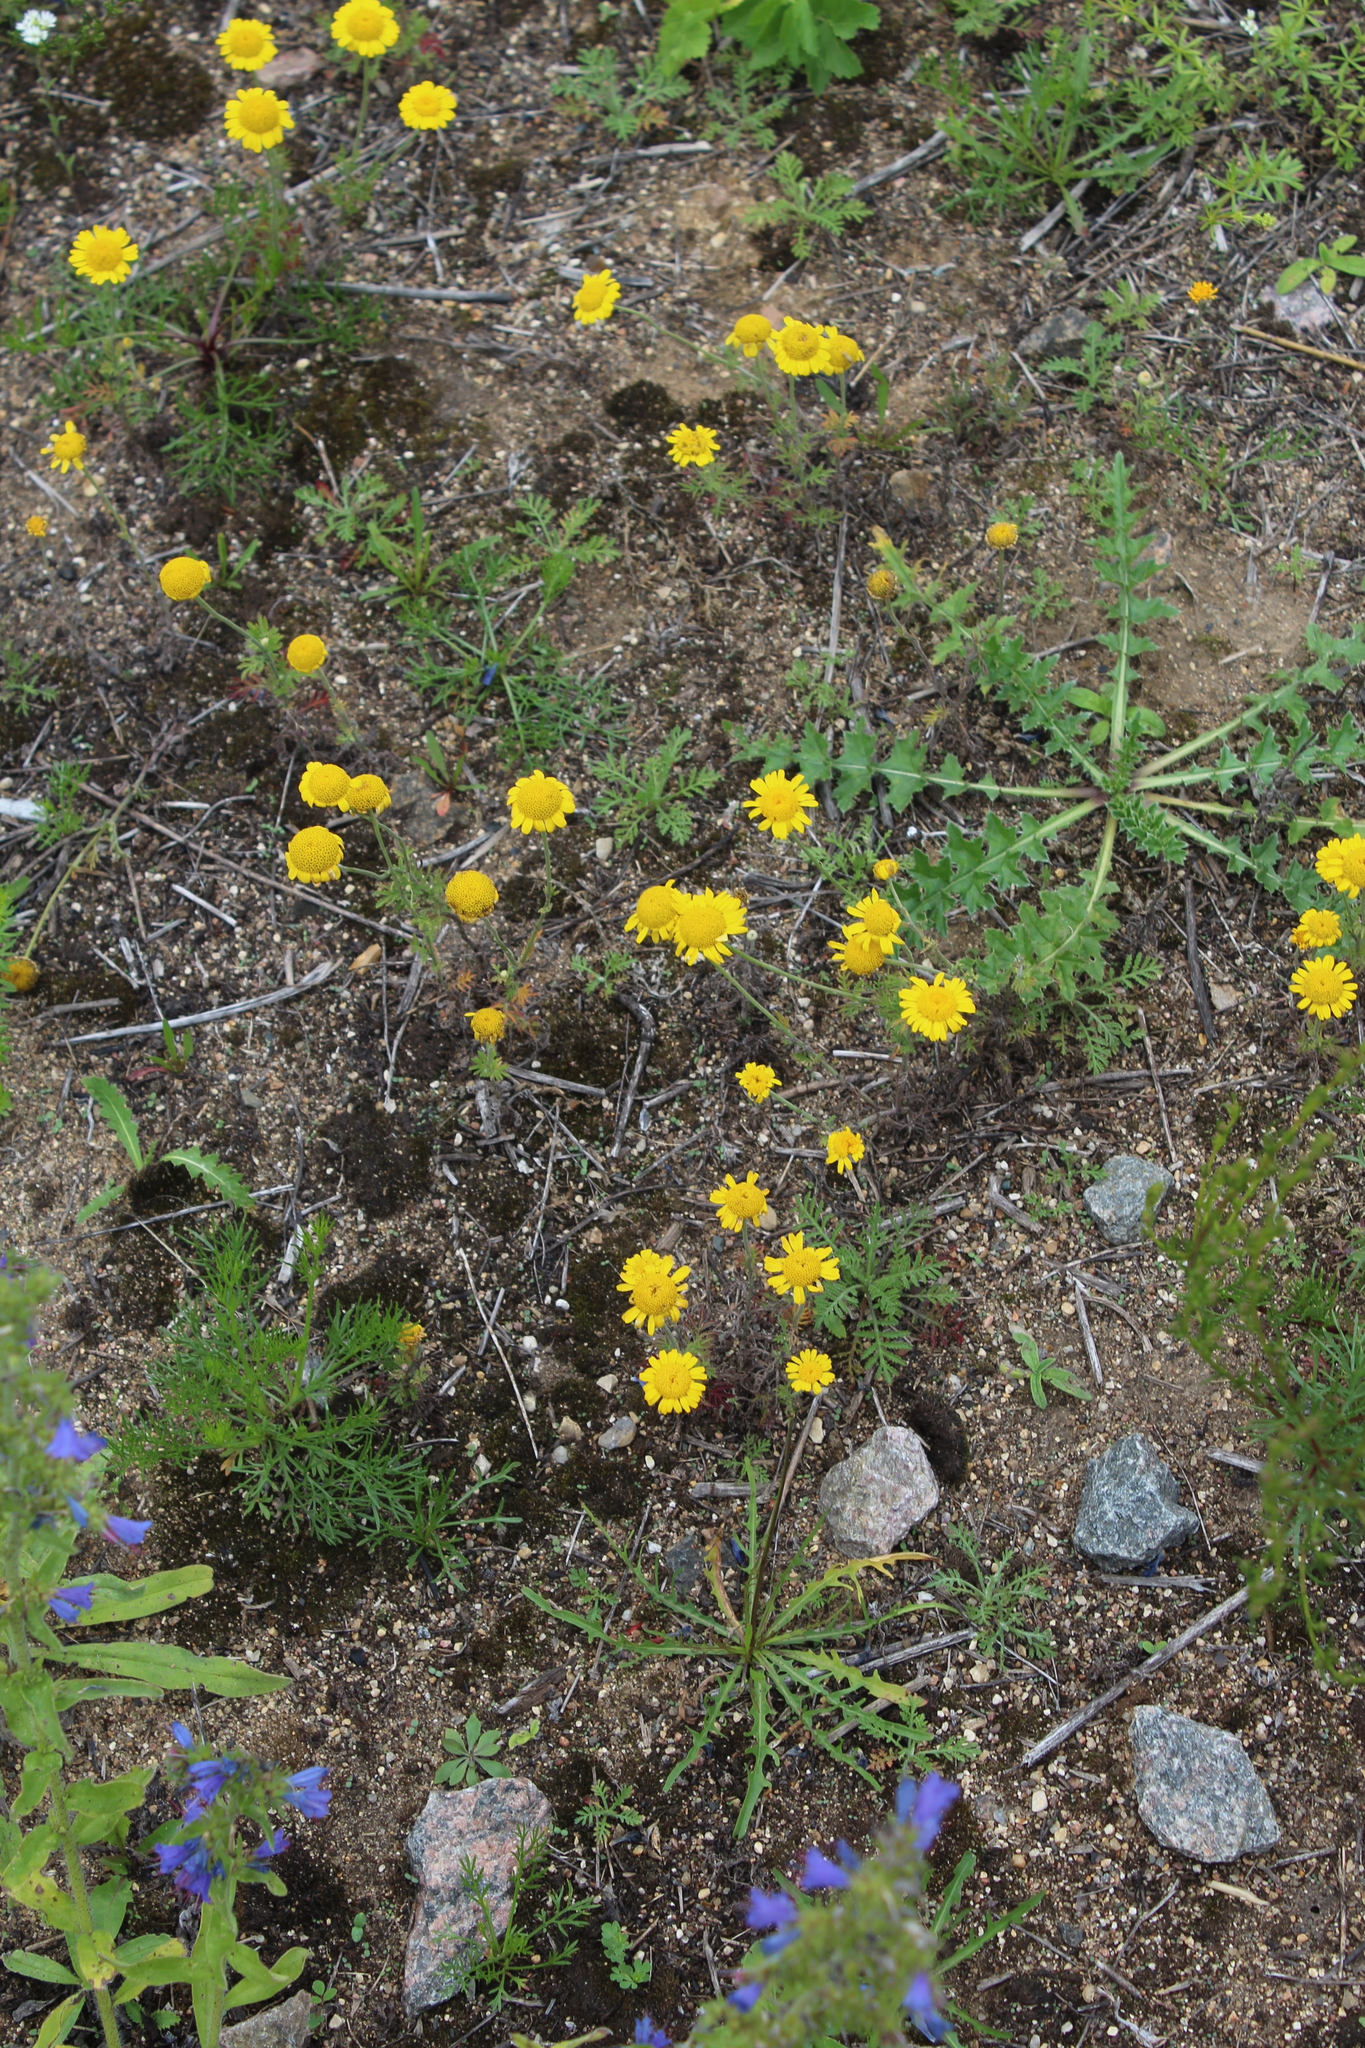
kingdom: Plantae
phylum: Tracheophyta
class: Magnoliopsida
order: Asterales
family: Asteraceae
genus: Cota
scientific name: Cota tinctoria
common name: Golden chamomile
